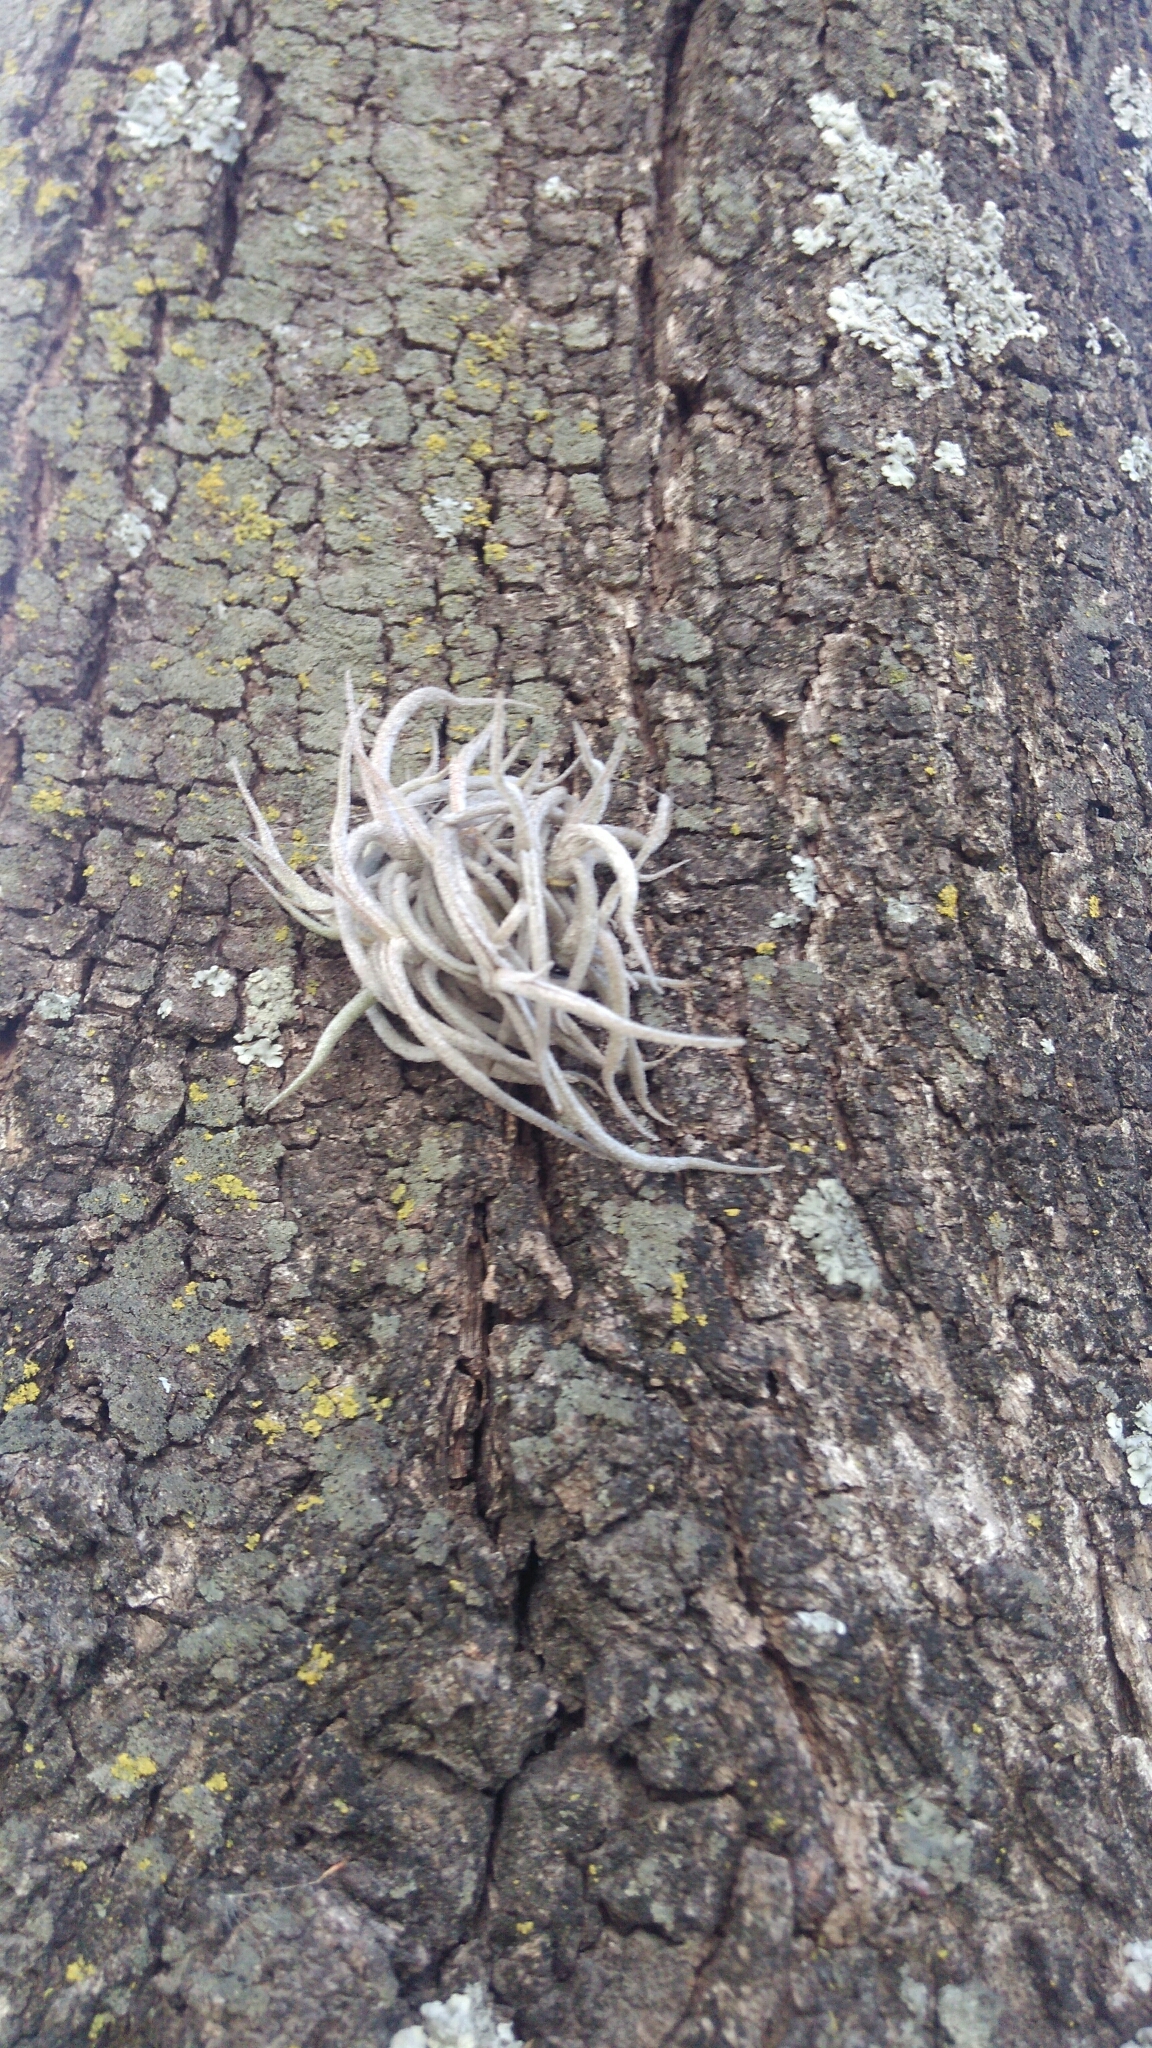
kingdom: Plantae
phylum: Tracheophyta
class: Liliopsida
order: Poales
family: Bromeliaceae
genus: Tillandsia
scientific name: Tillandsia recurvata
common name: Small ballmoss
